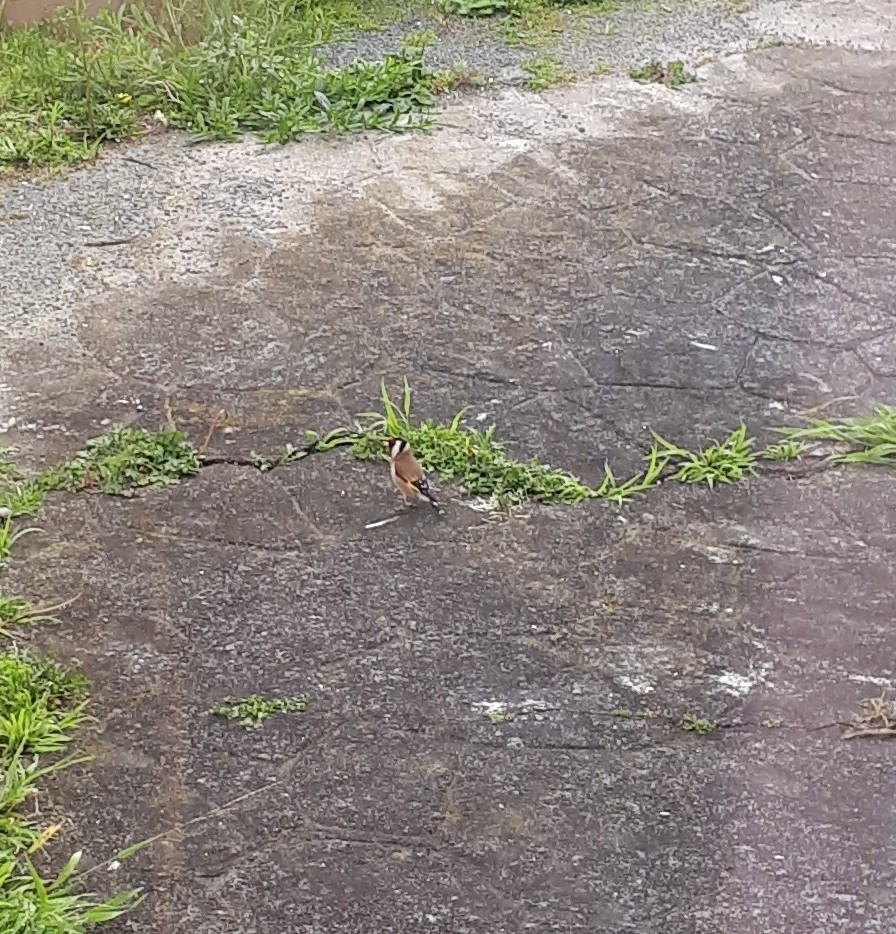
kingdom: Animalia
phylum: Chordata
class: Aves
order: Passeriformes
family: Fringillidae
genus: Carduelis
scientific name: Carduelis carduelis
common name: European goldfinch
